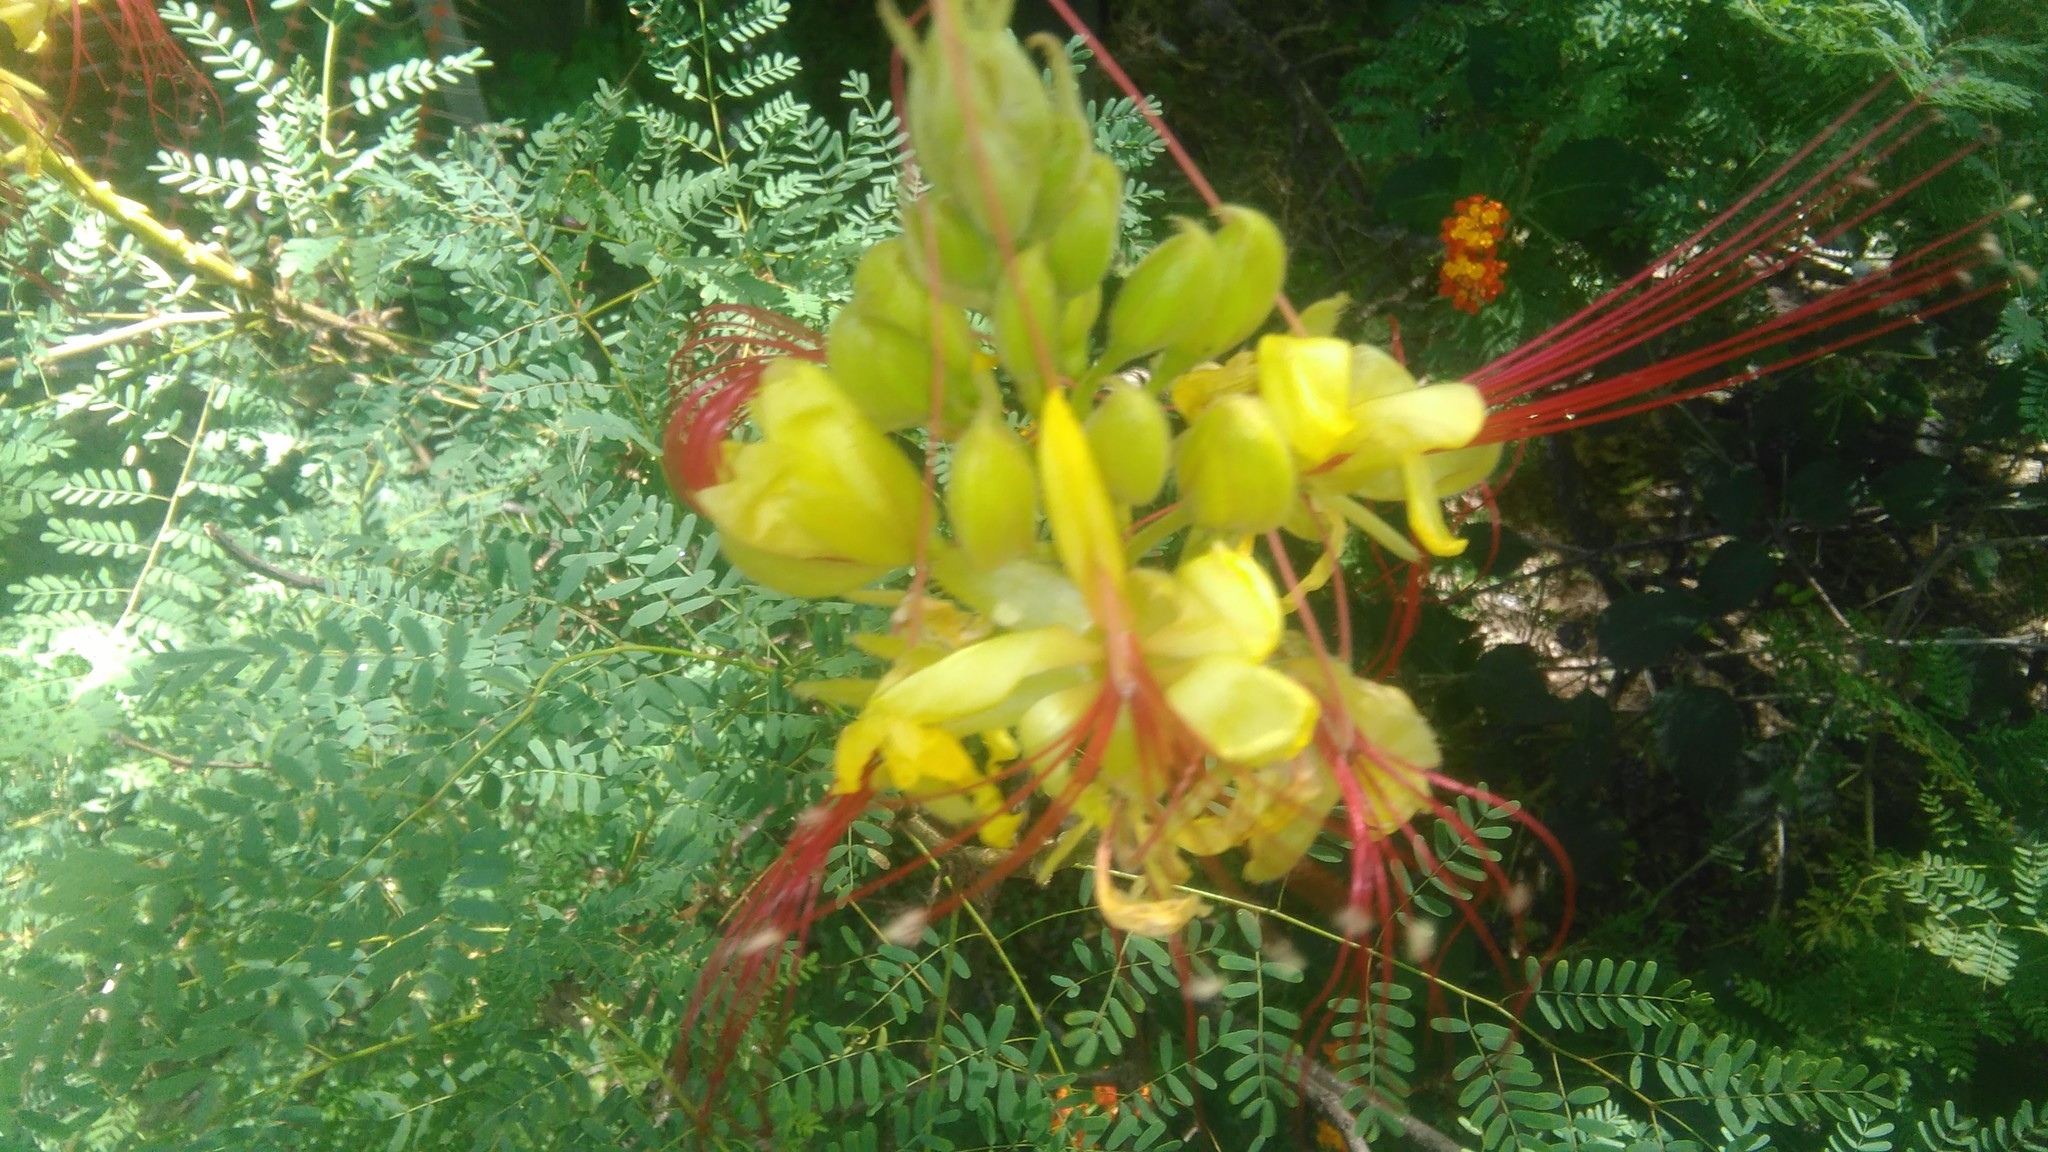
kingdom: Plantae
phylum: Tracheophyta
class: Magnoliopsida
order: Fabales
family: Fabaceae
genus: Erythrostemon
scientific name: Erythrostemon gilliesii
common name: Bird-of-paradise shrub
